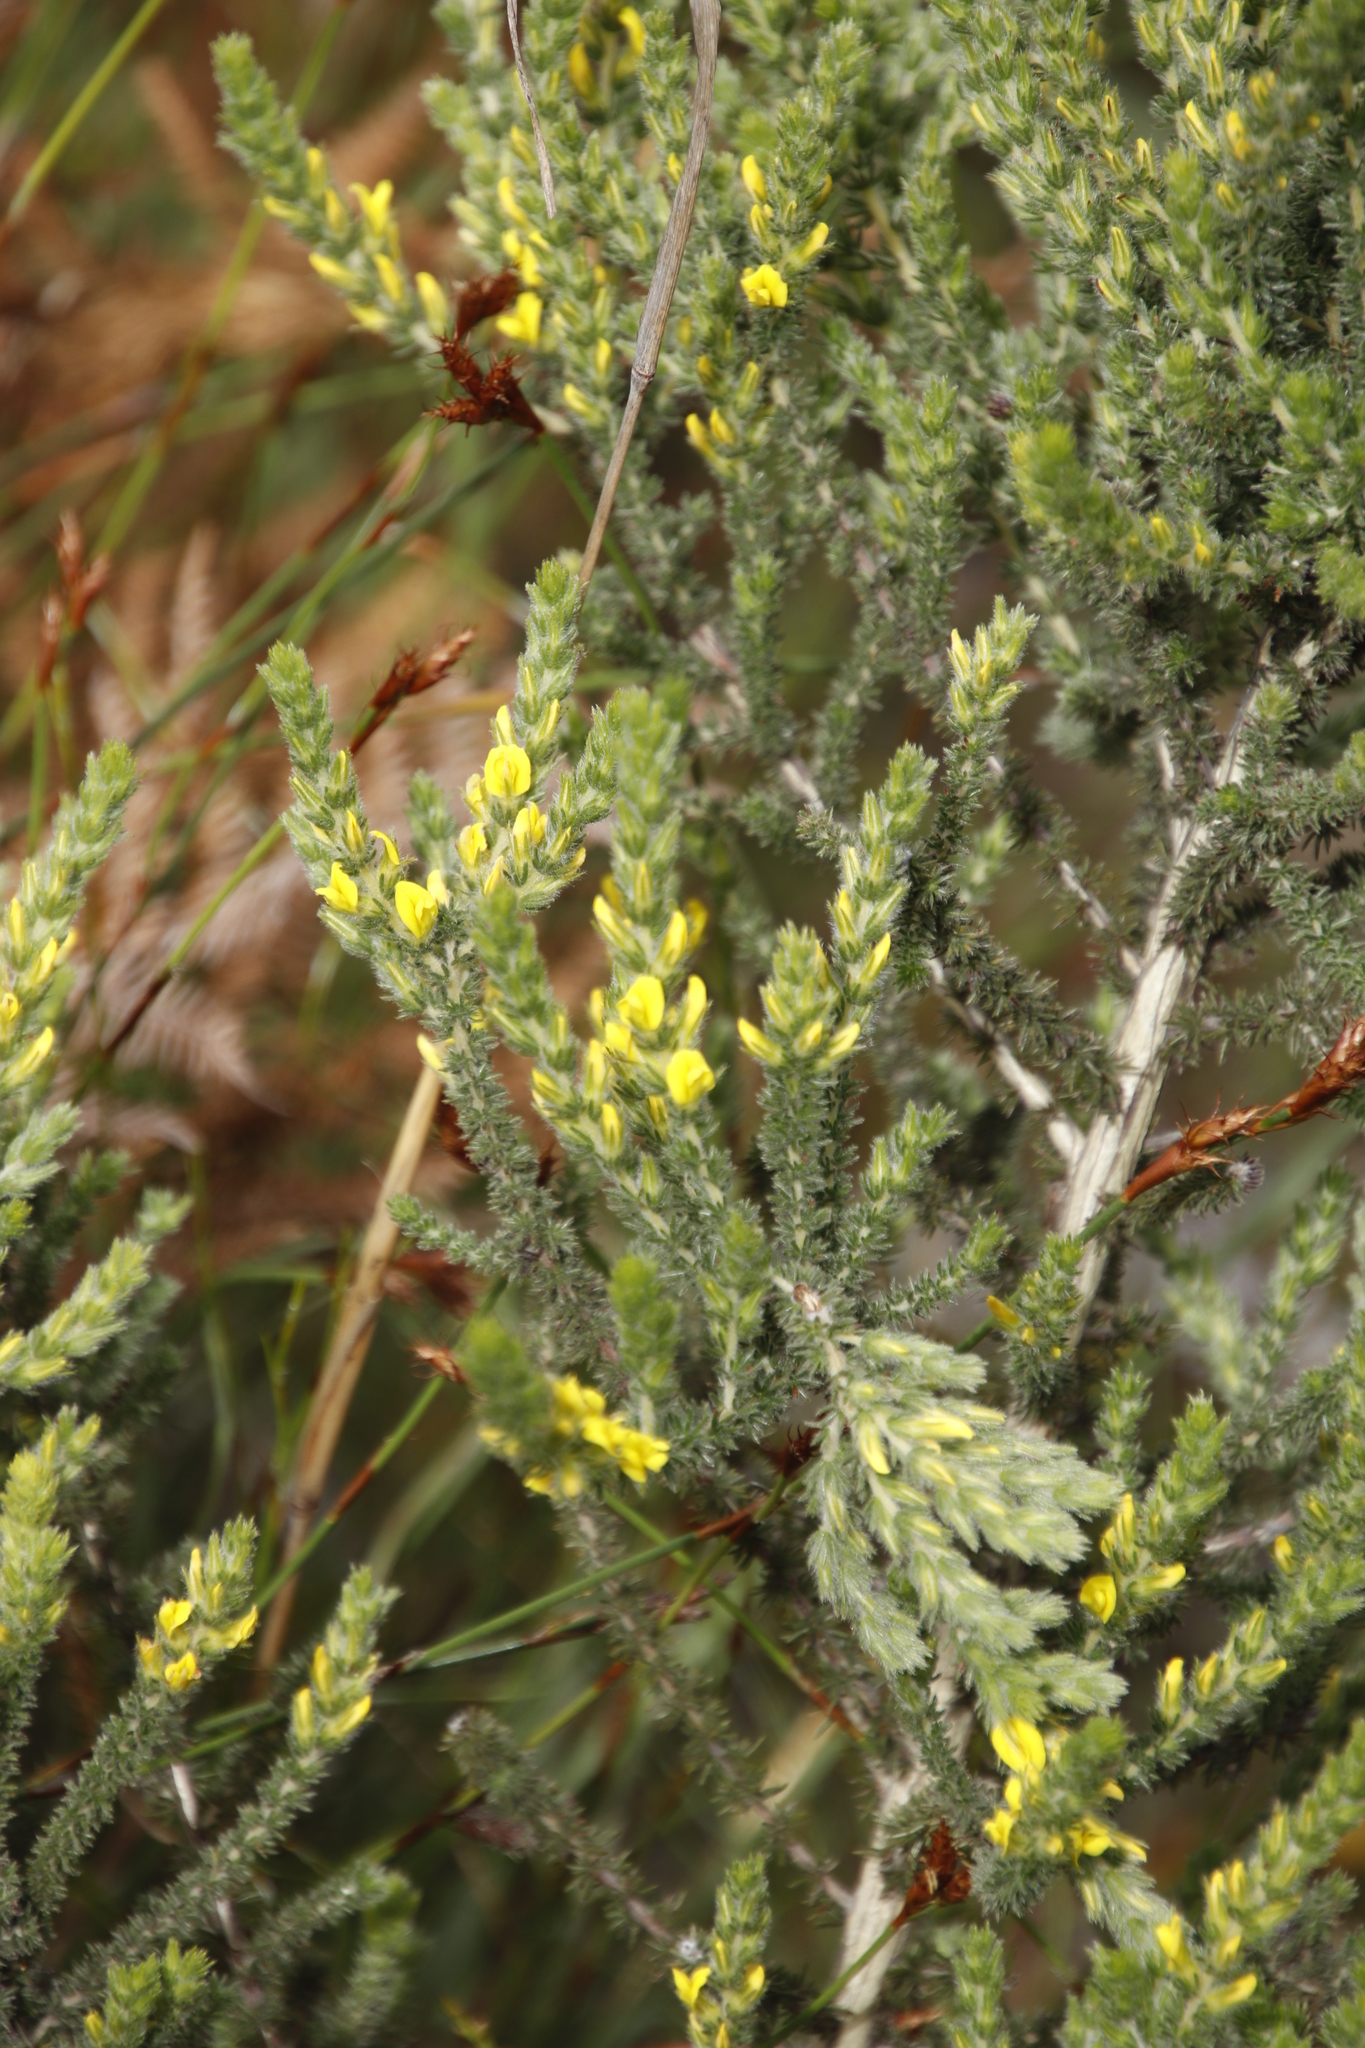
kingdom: Plantae
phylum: Tracheophyta
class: Magnoliopsida
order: Fabales
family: Fabaceae
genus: Aspalathus
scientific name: Aspalathus ericifolia
